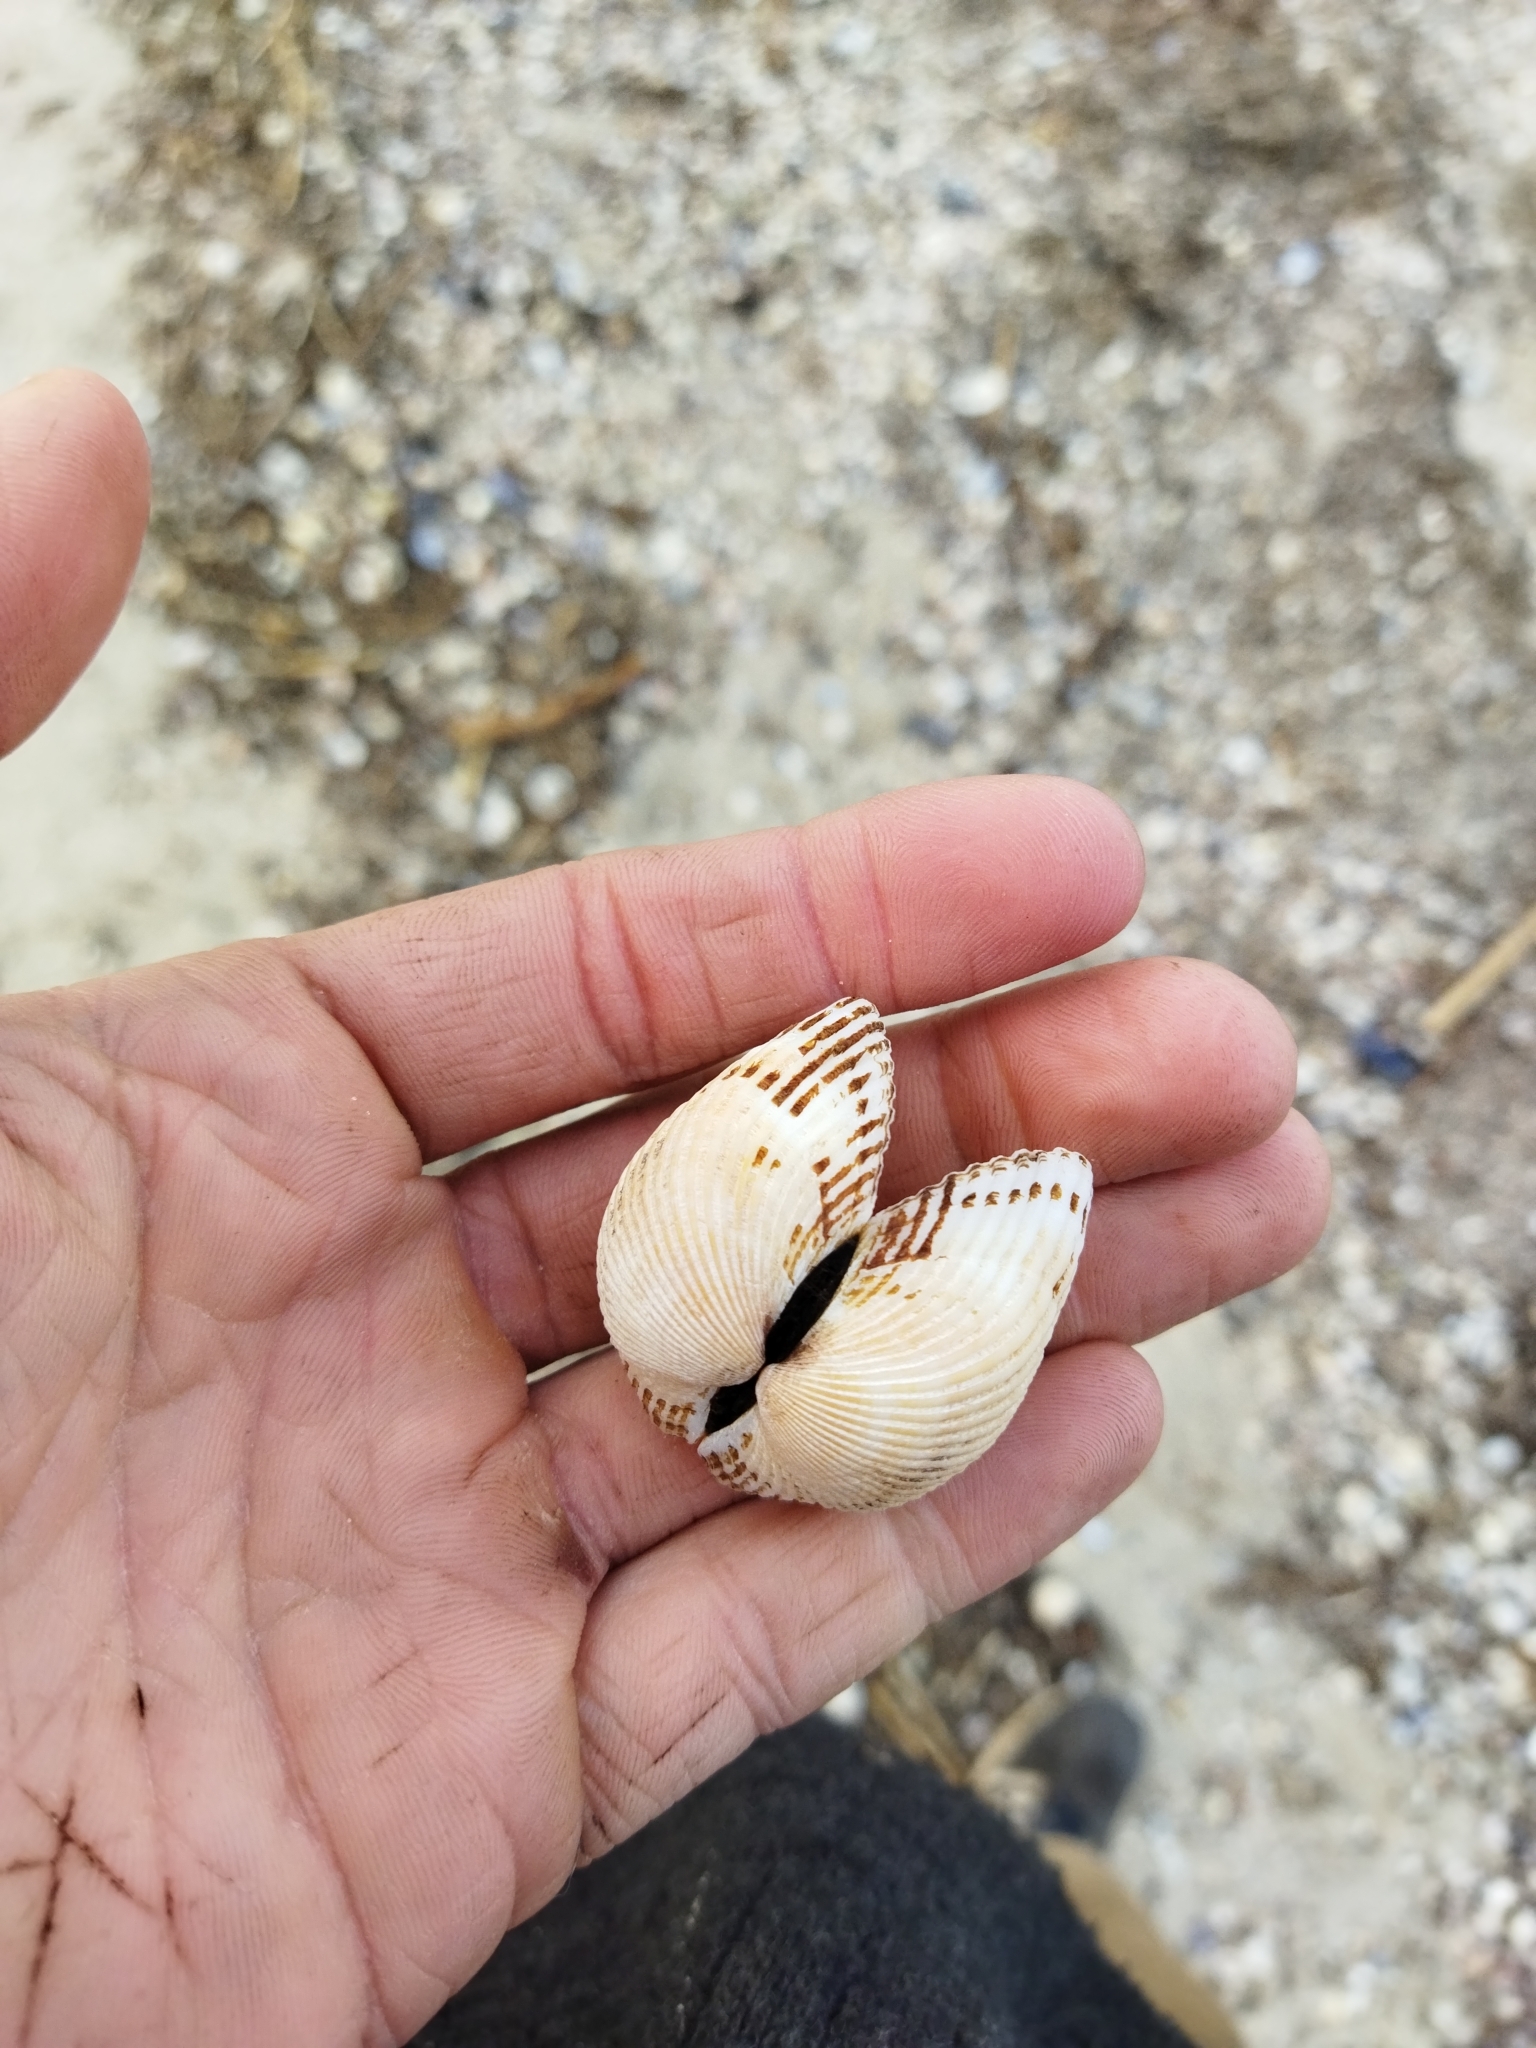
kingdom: Animalia
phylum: Mollusca
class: Bivalvia
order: Arcida
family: Arcidae
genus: Anadara
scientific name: Anadara kagoshimensis
